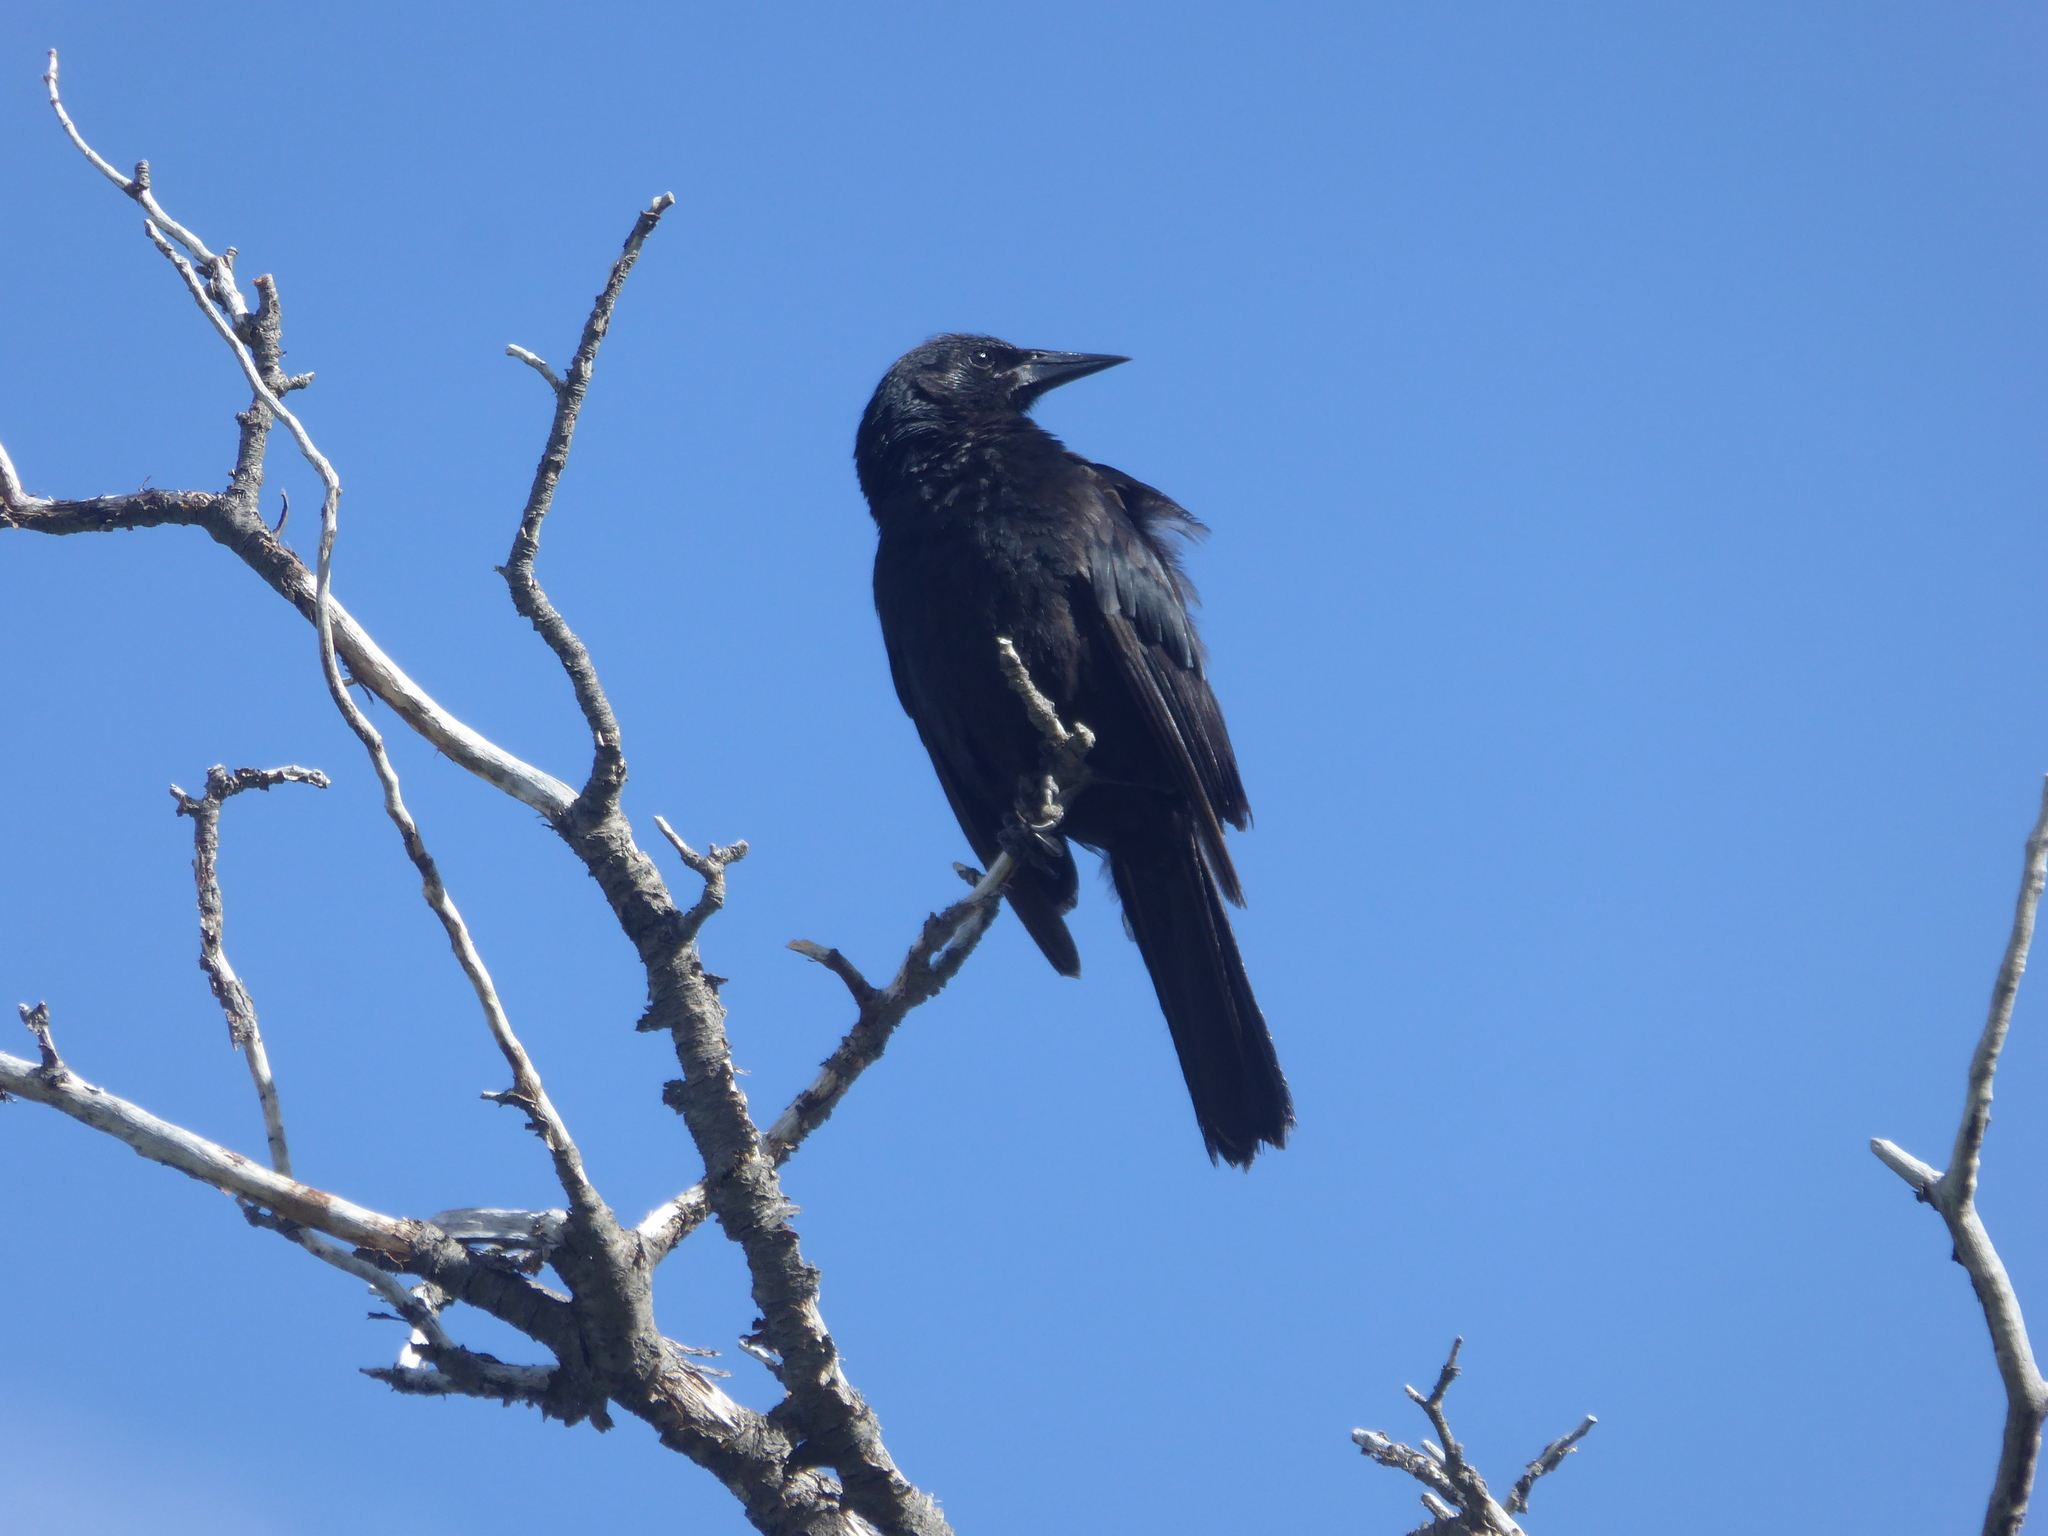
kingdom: Animalia
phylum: Chordata
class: Aves
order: Passeriformes
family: Icteridae
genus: Curaeus
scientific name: Curaeus curaeus
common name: Austral blackbird
